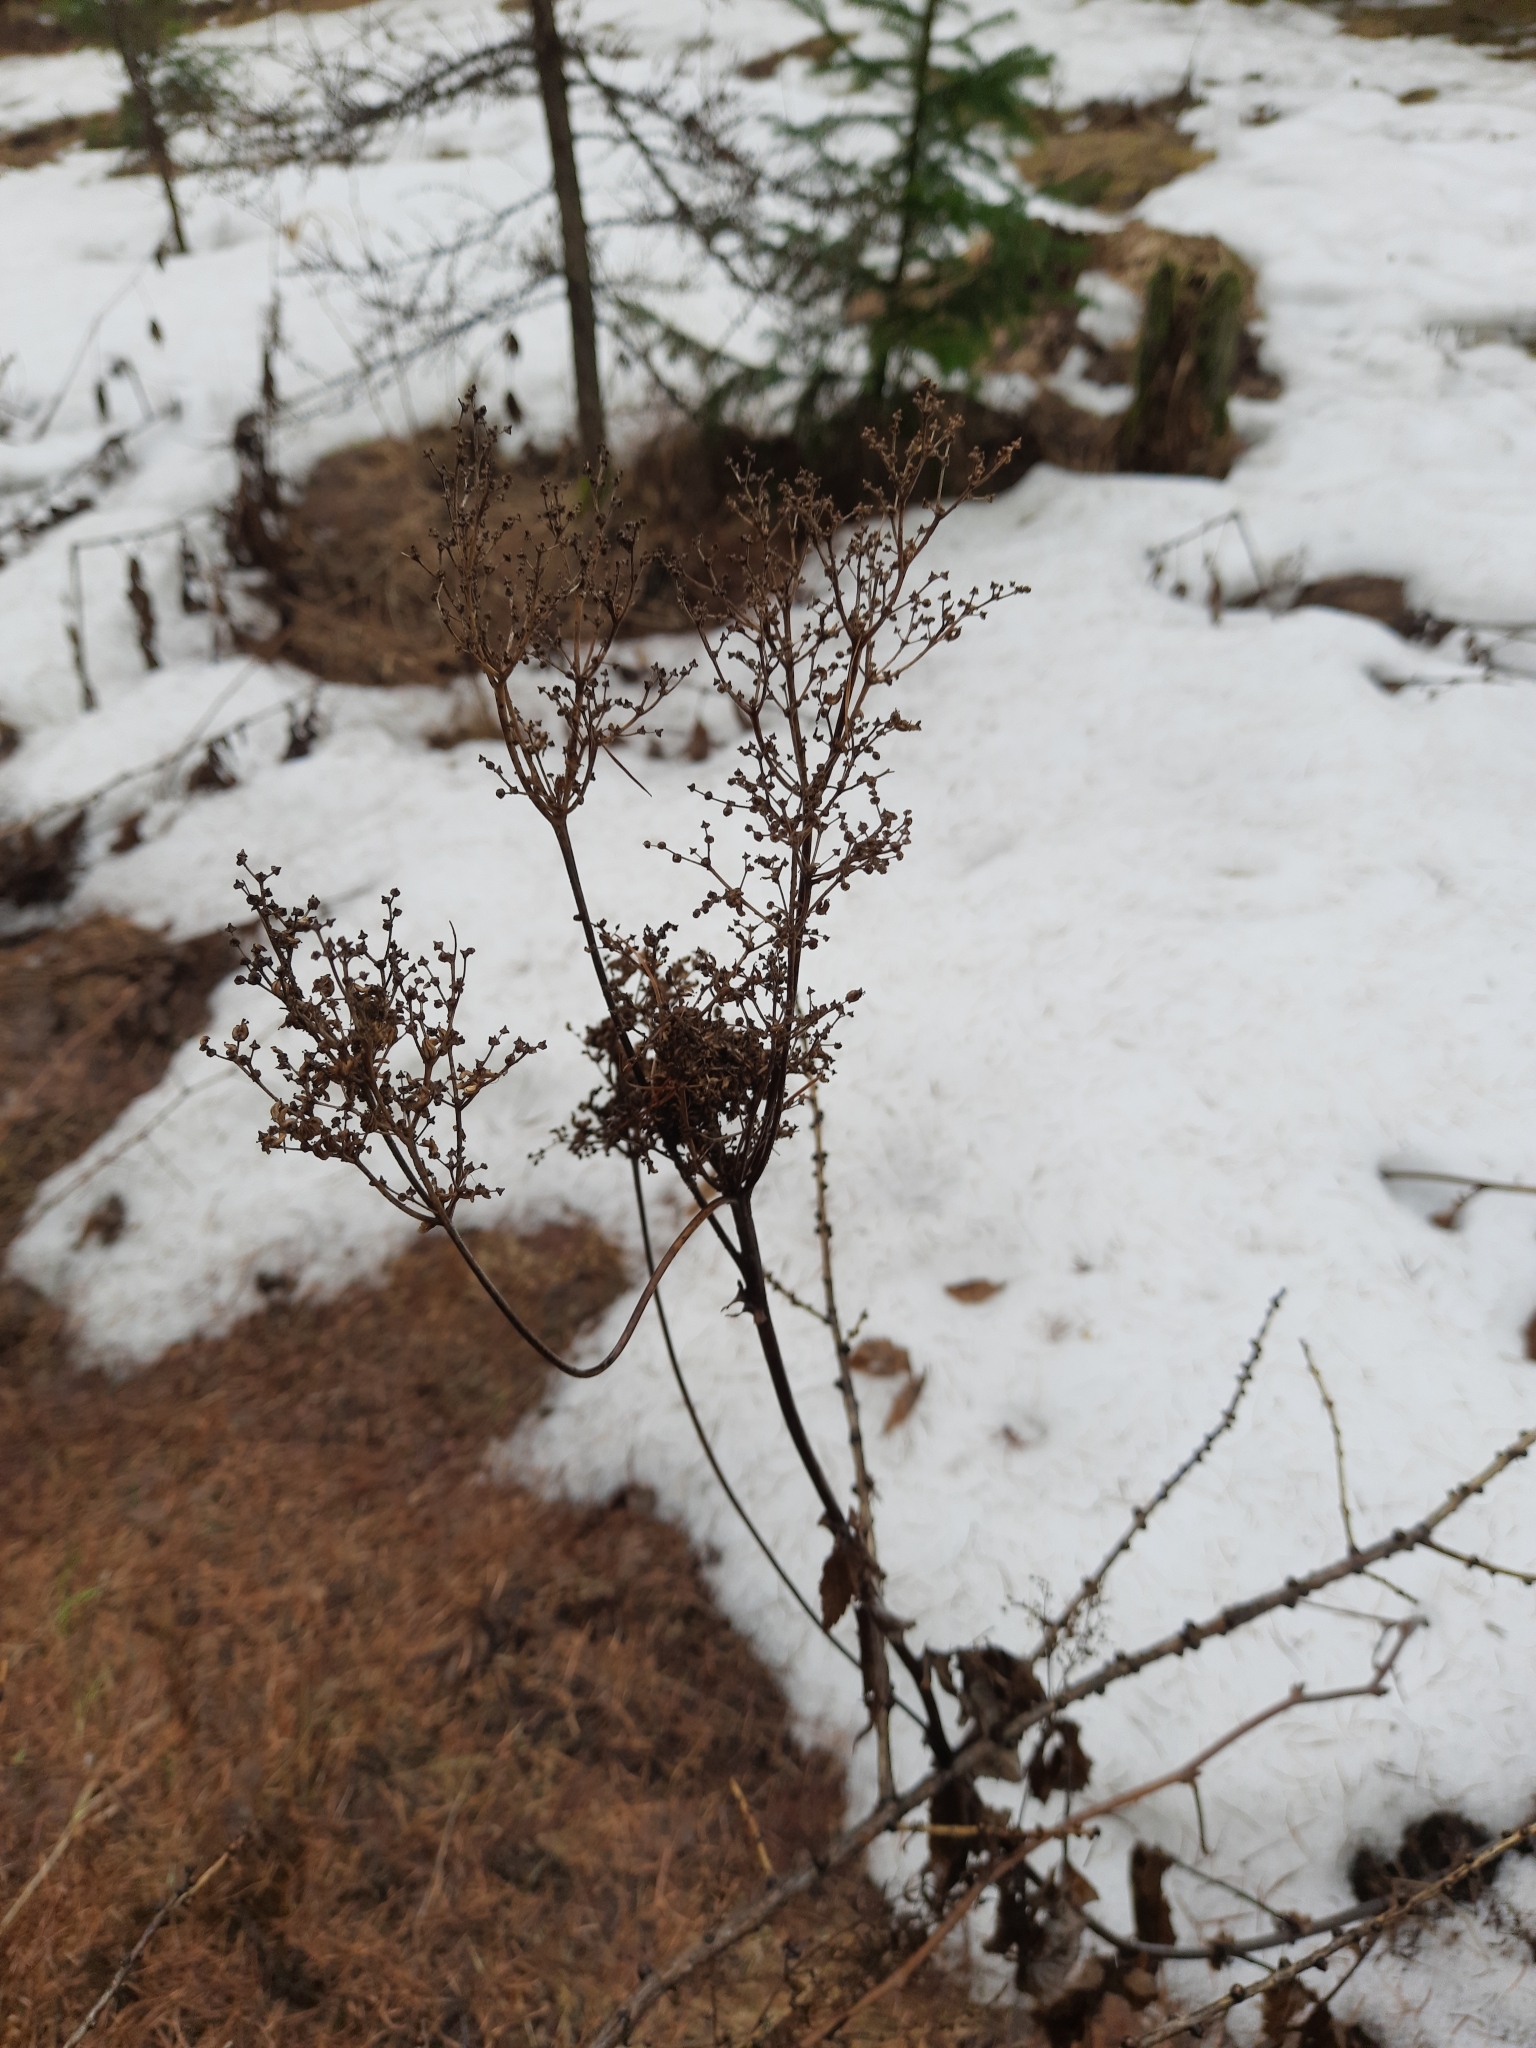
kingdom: Plantae
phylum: Tracheophyta
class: Magnoliopsida
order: Rosales
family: Rosaceae
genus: Filipendula
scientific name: Filipendula ulmaria
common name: Meadowsweet
